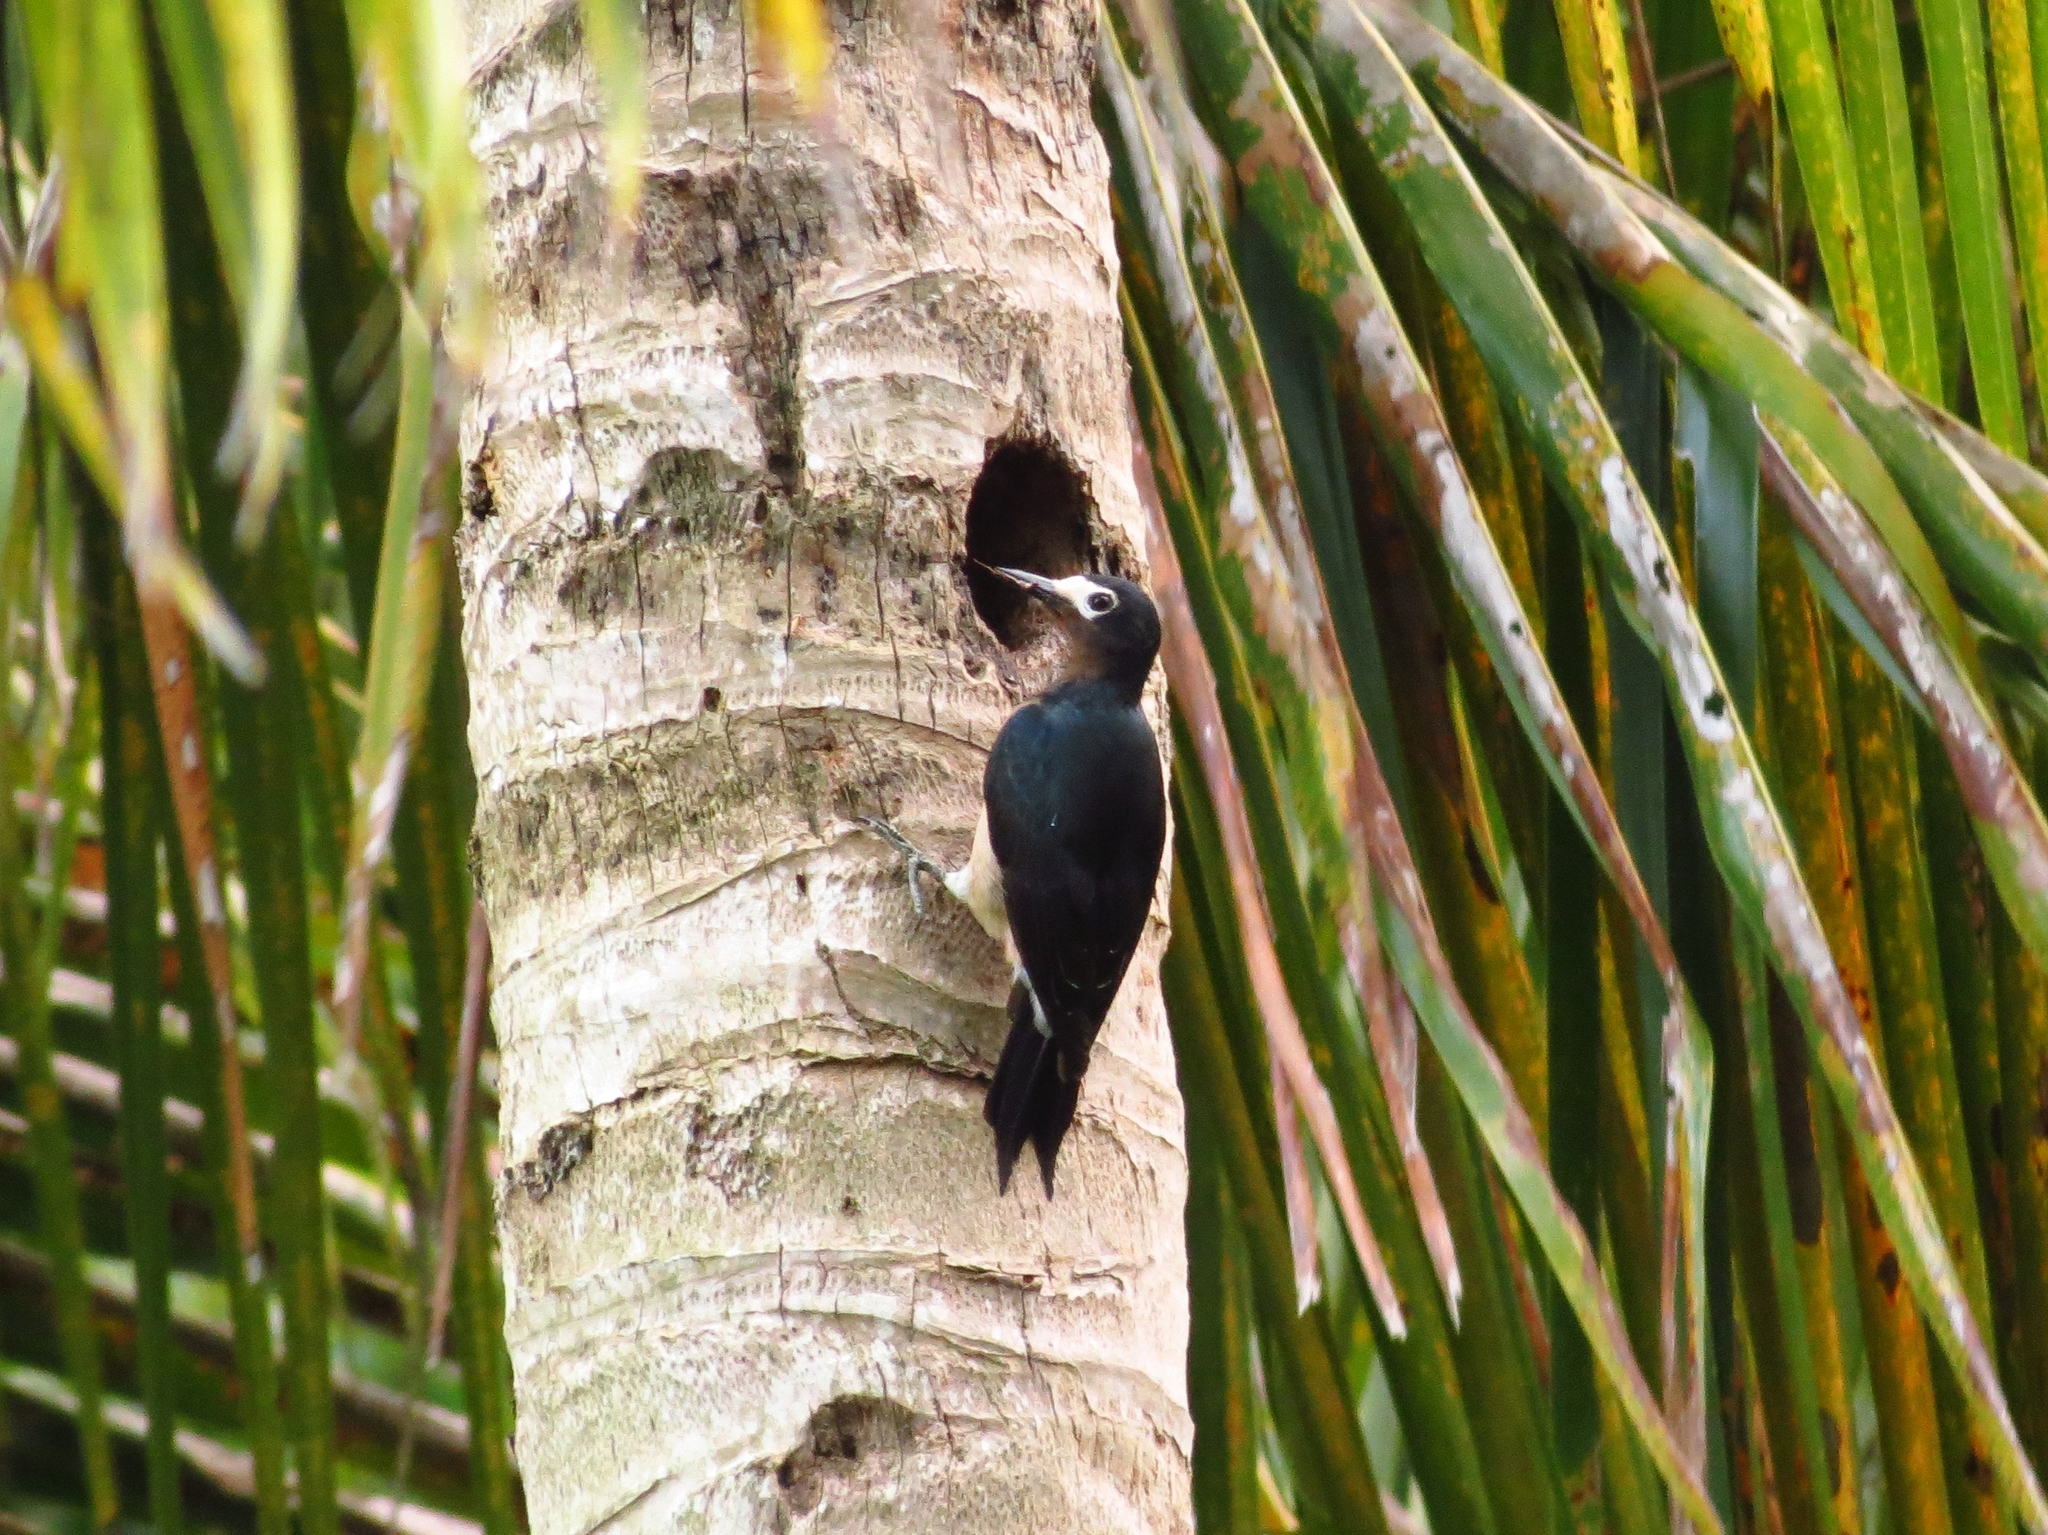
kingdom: Animalia
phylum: Chordata
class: Aves
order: Piciformes
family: Picidae
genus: Melanerpes
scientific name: Melanerpes portoricensis
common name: Puerto rican woodpecker
